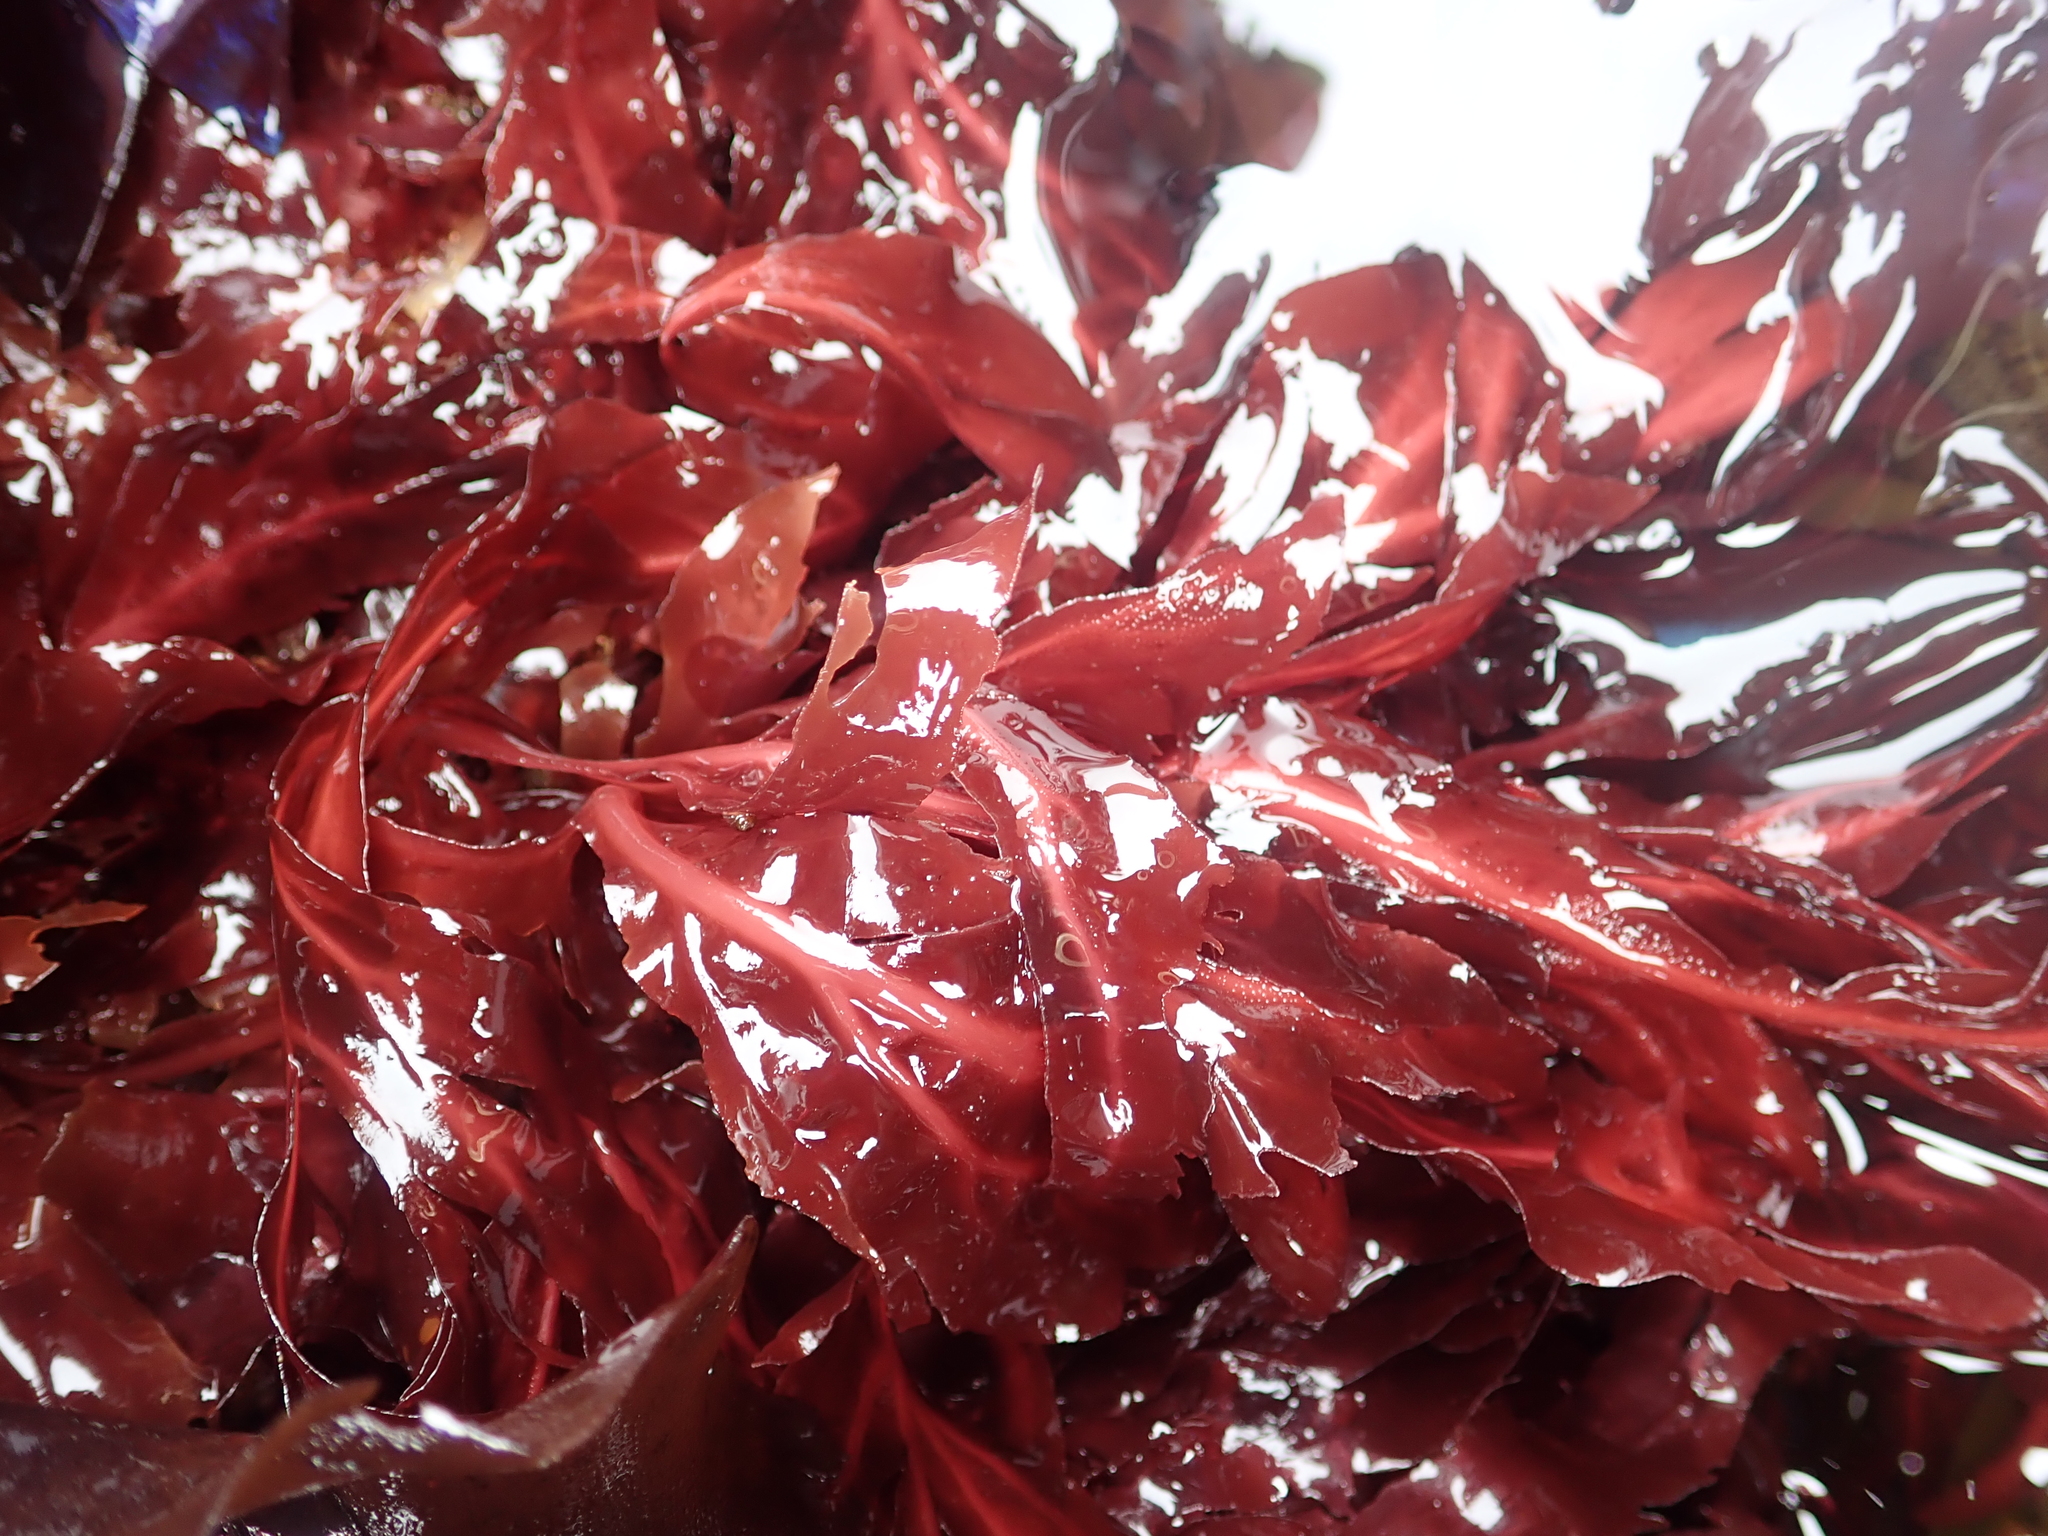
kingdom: Plantae
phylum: Rhodophyta
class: Florideophyceae
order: Gigartinales
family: Kallymeniaceae
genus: Erythrophyllum
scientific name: Erythrophyllum delesserioides
